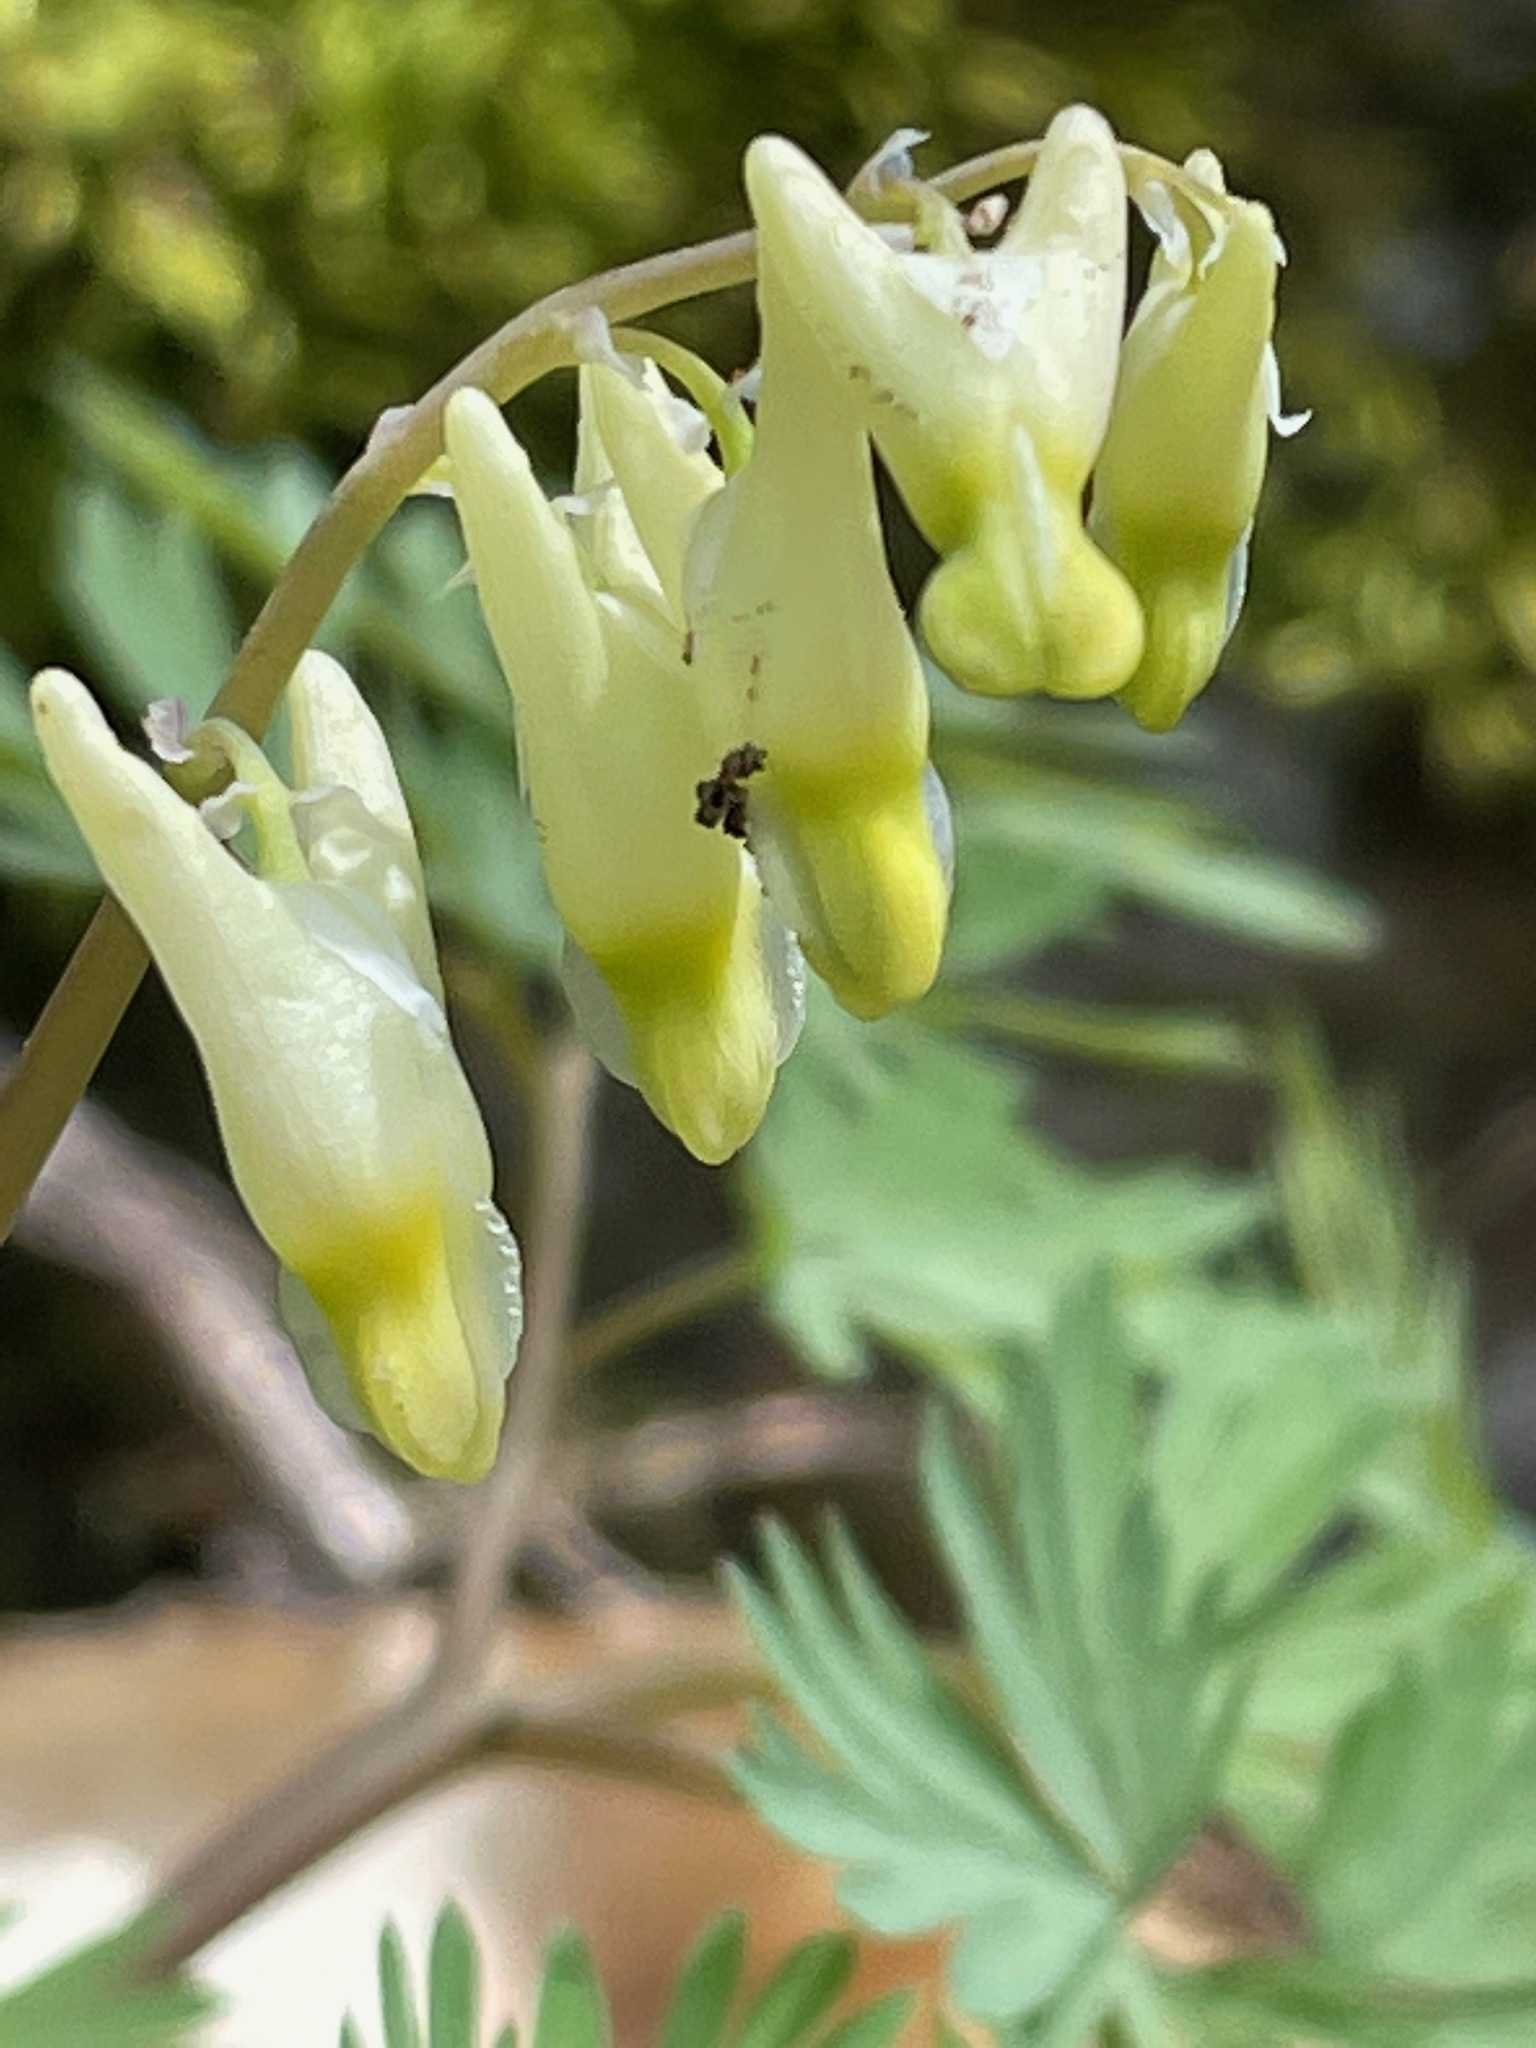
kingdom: Plantae
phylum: Tracheophyta
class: Magnoliopsida
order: Ranunculales
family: Papaveraceae
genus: Dicentra
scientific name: Dicentra cucullaria
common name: Dutchman's breeches
